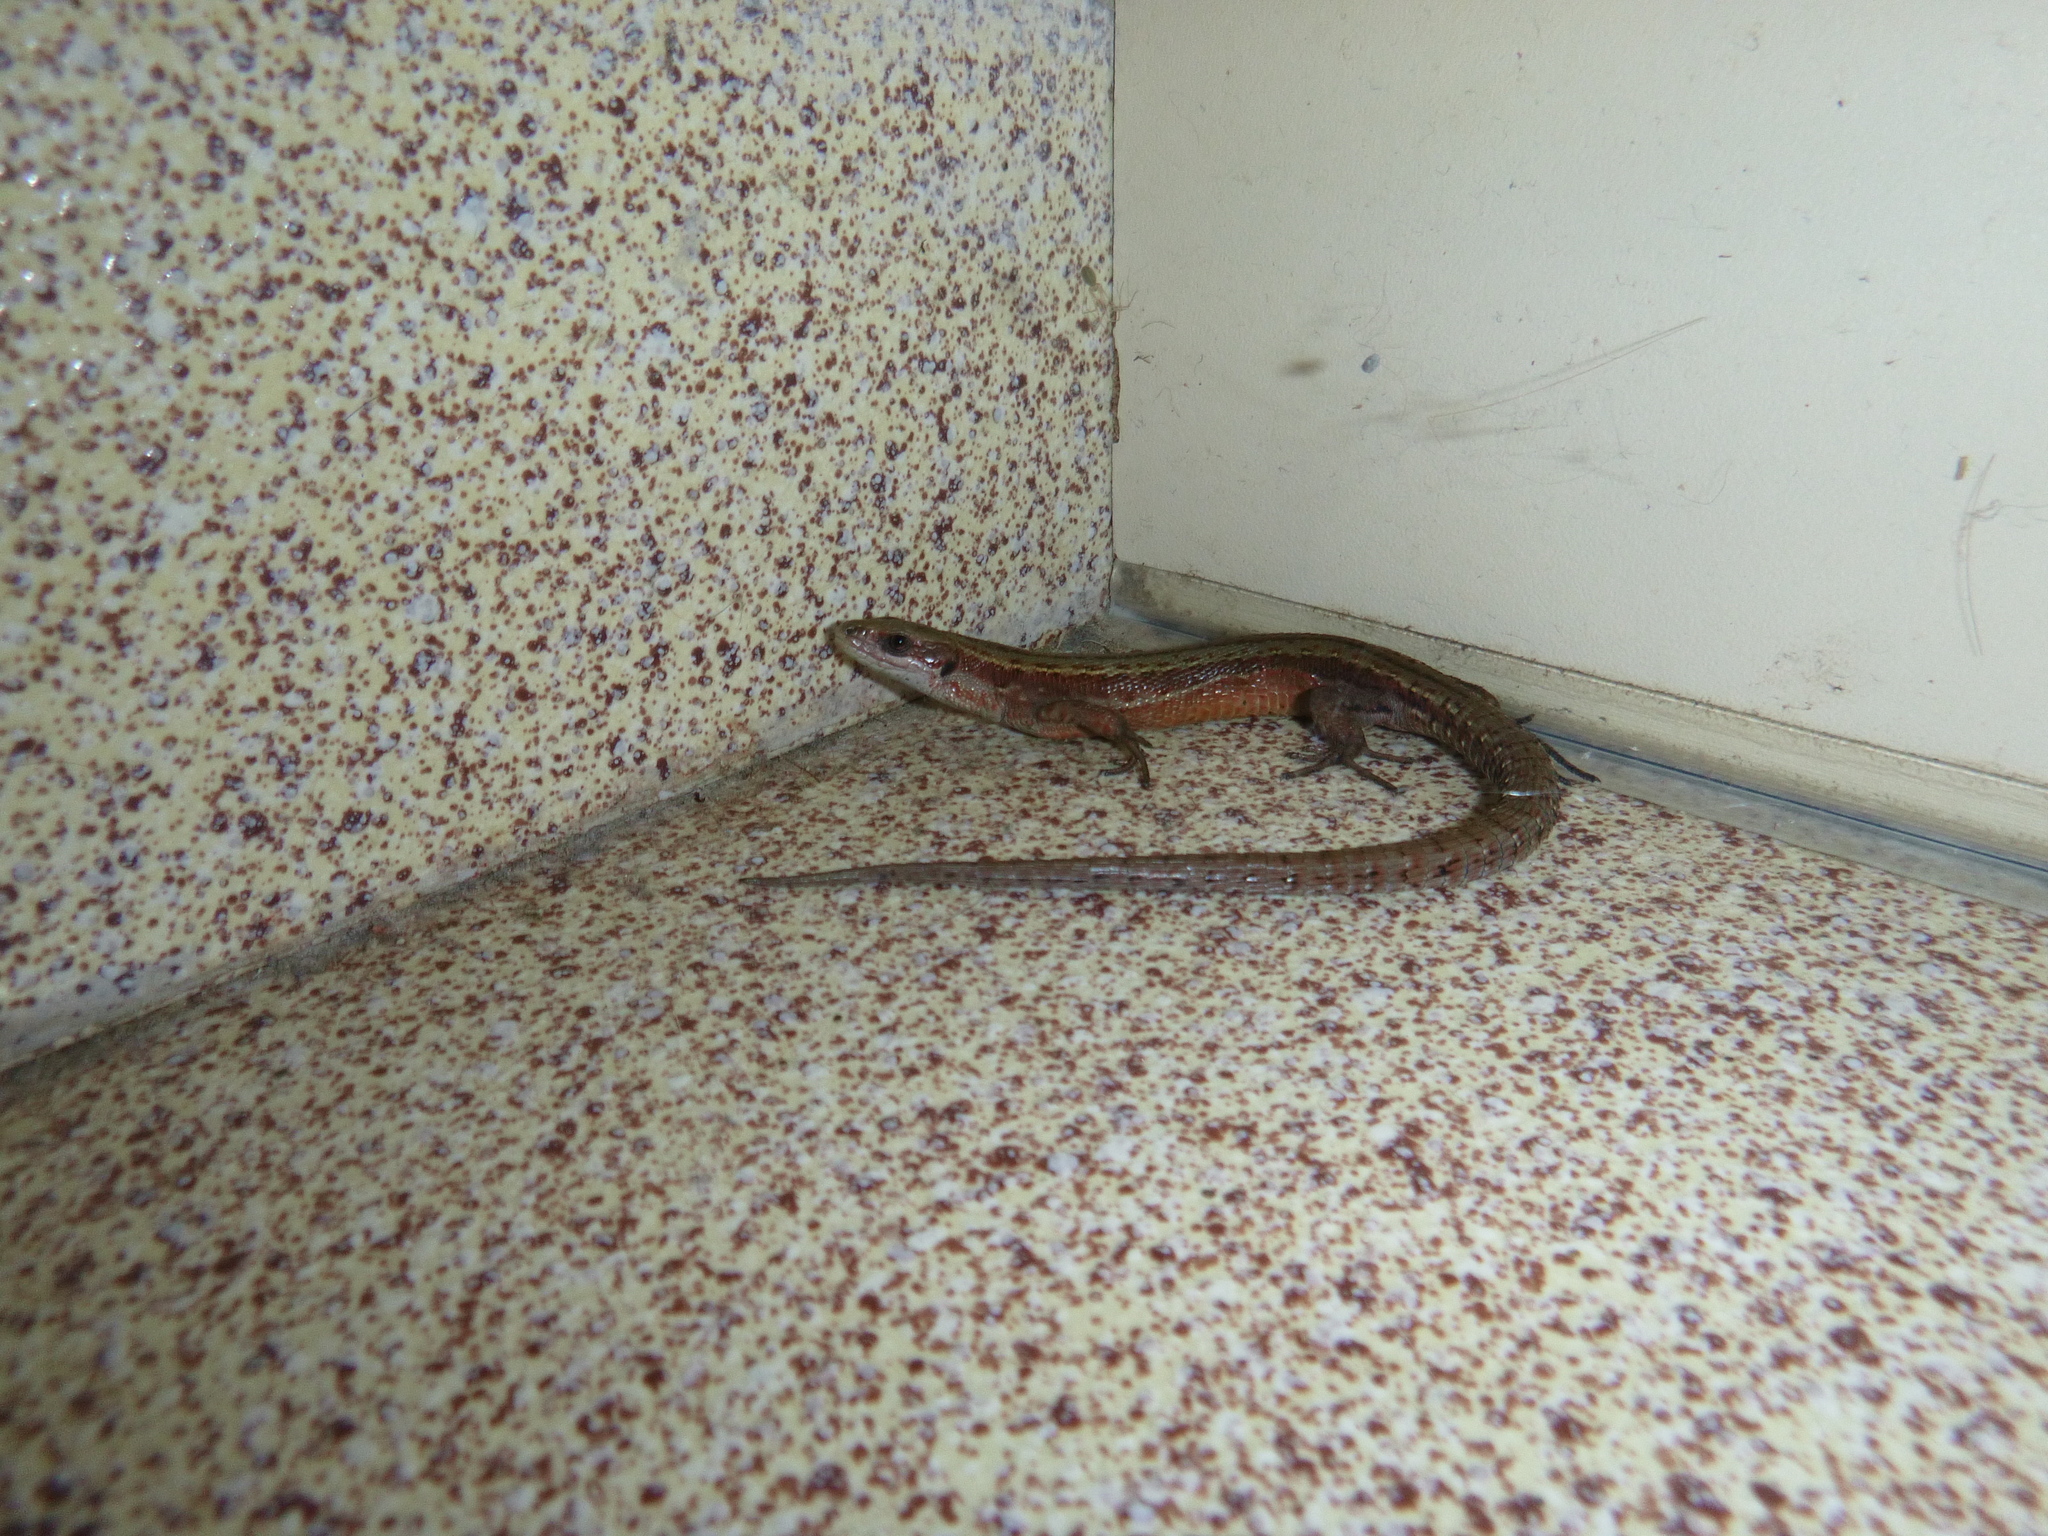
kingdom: Animalia
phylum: Chordata
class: Squamata
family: Lacertidae
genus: Zootoca
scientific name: Zootoca vivipara
